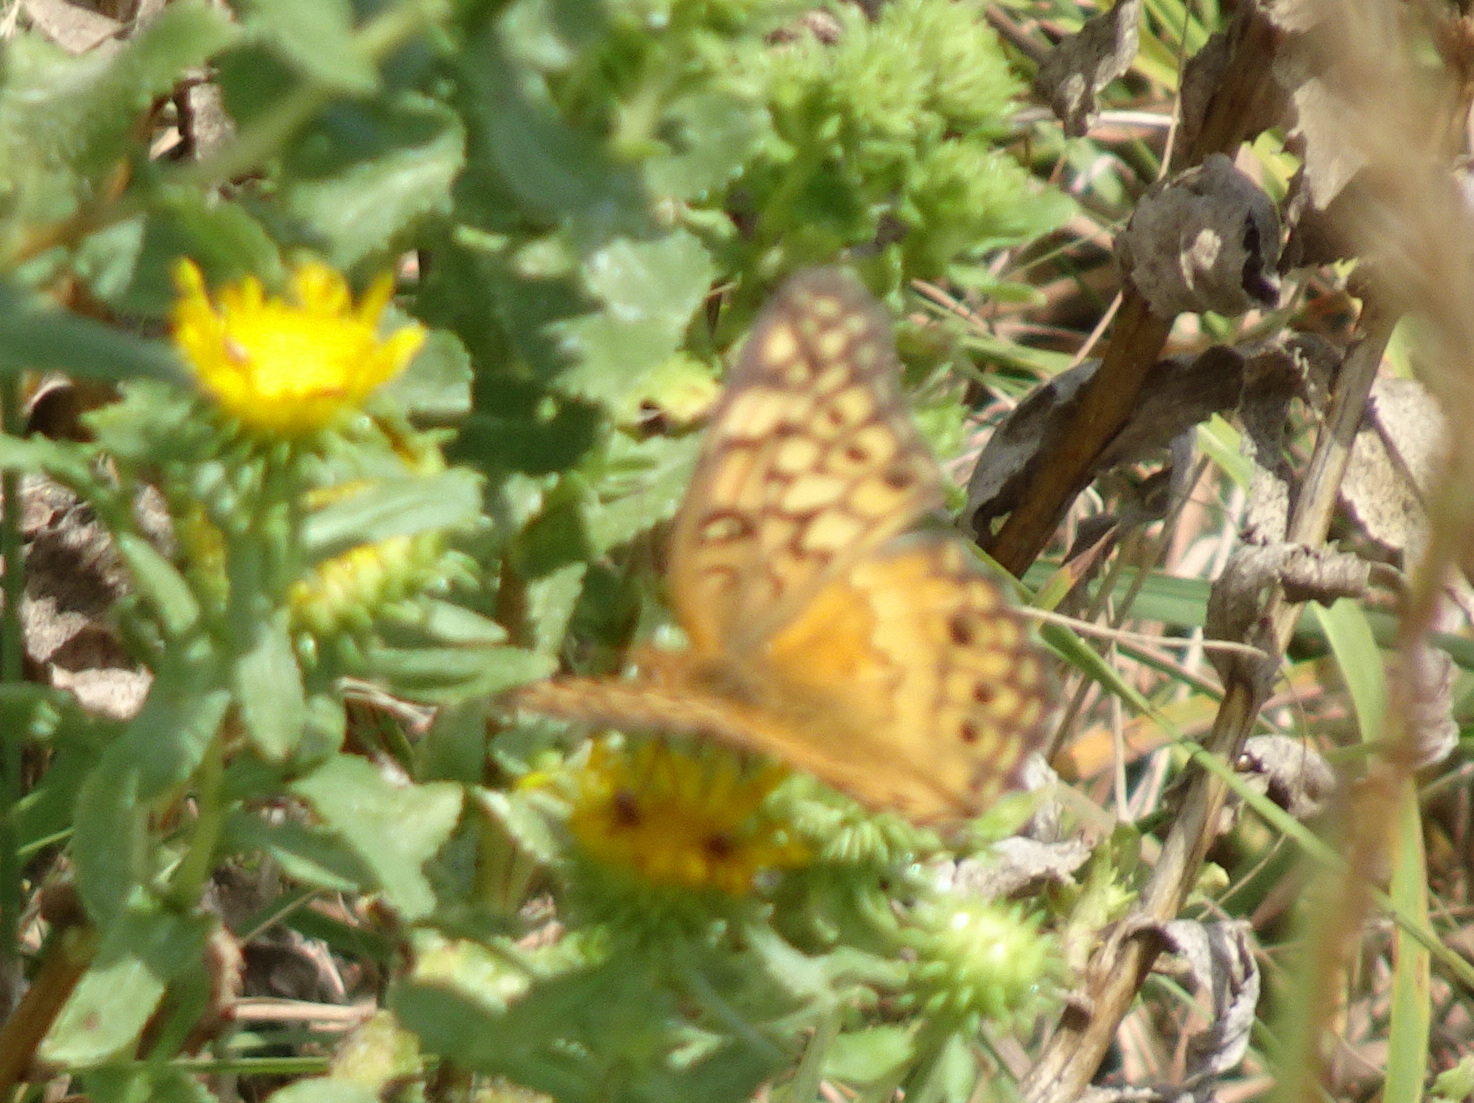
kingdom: Animalia
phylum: Arthropoda
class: Insecta
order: Lepidoptera
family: Nymphalidae
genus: Euptoieta
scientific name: Euptoieta claudia
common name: Variegated fritillary
